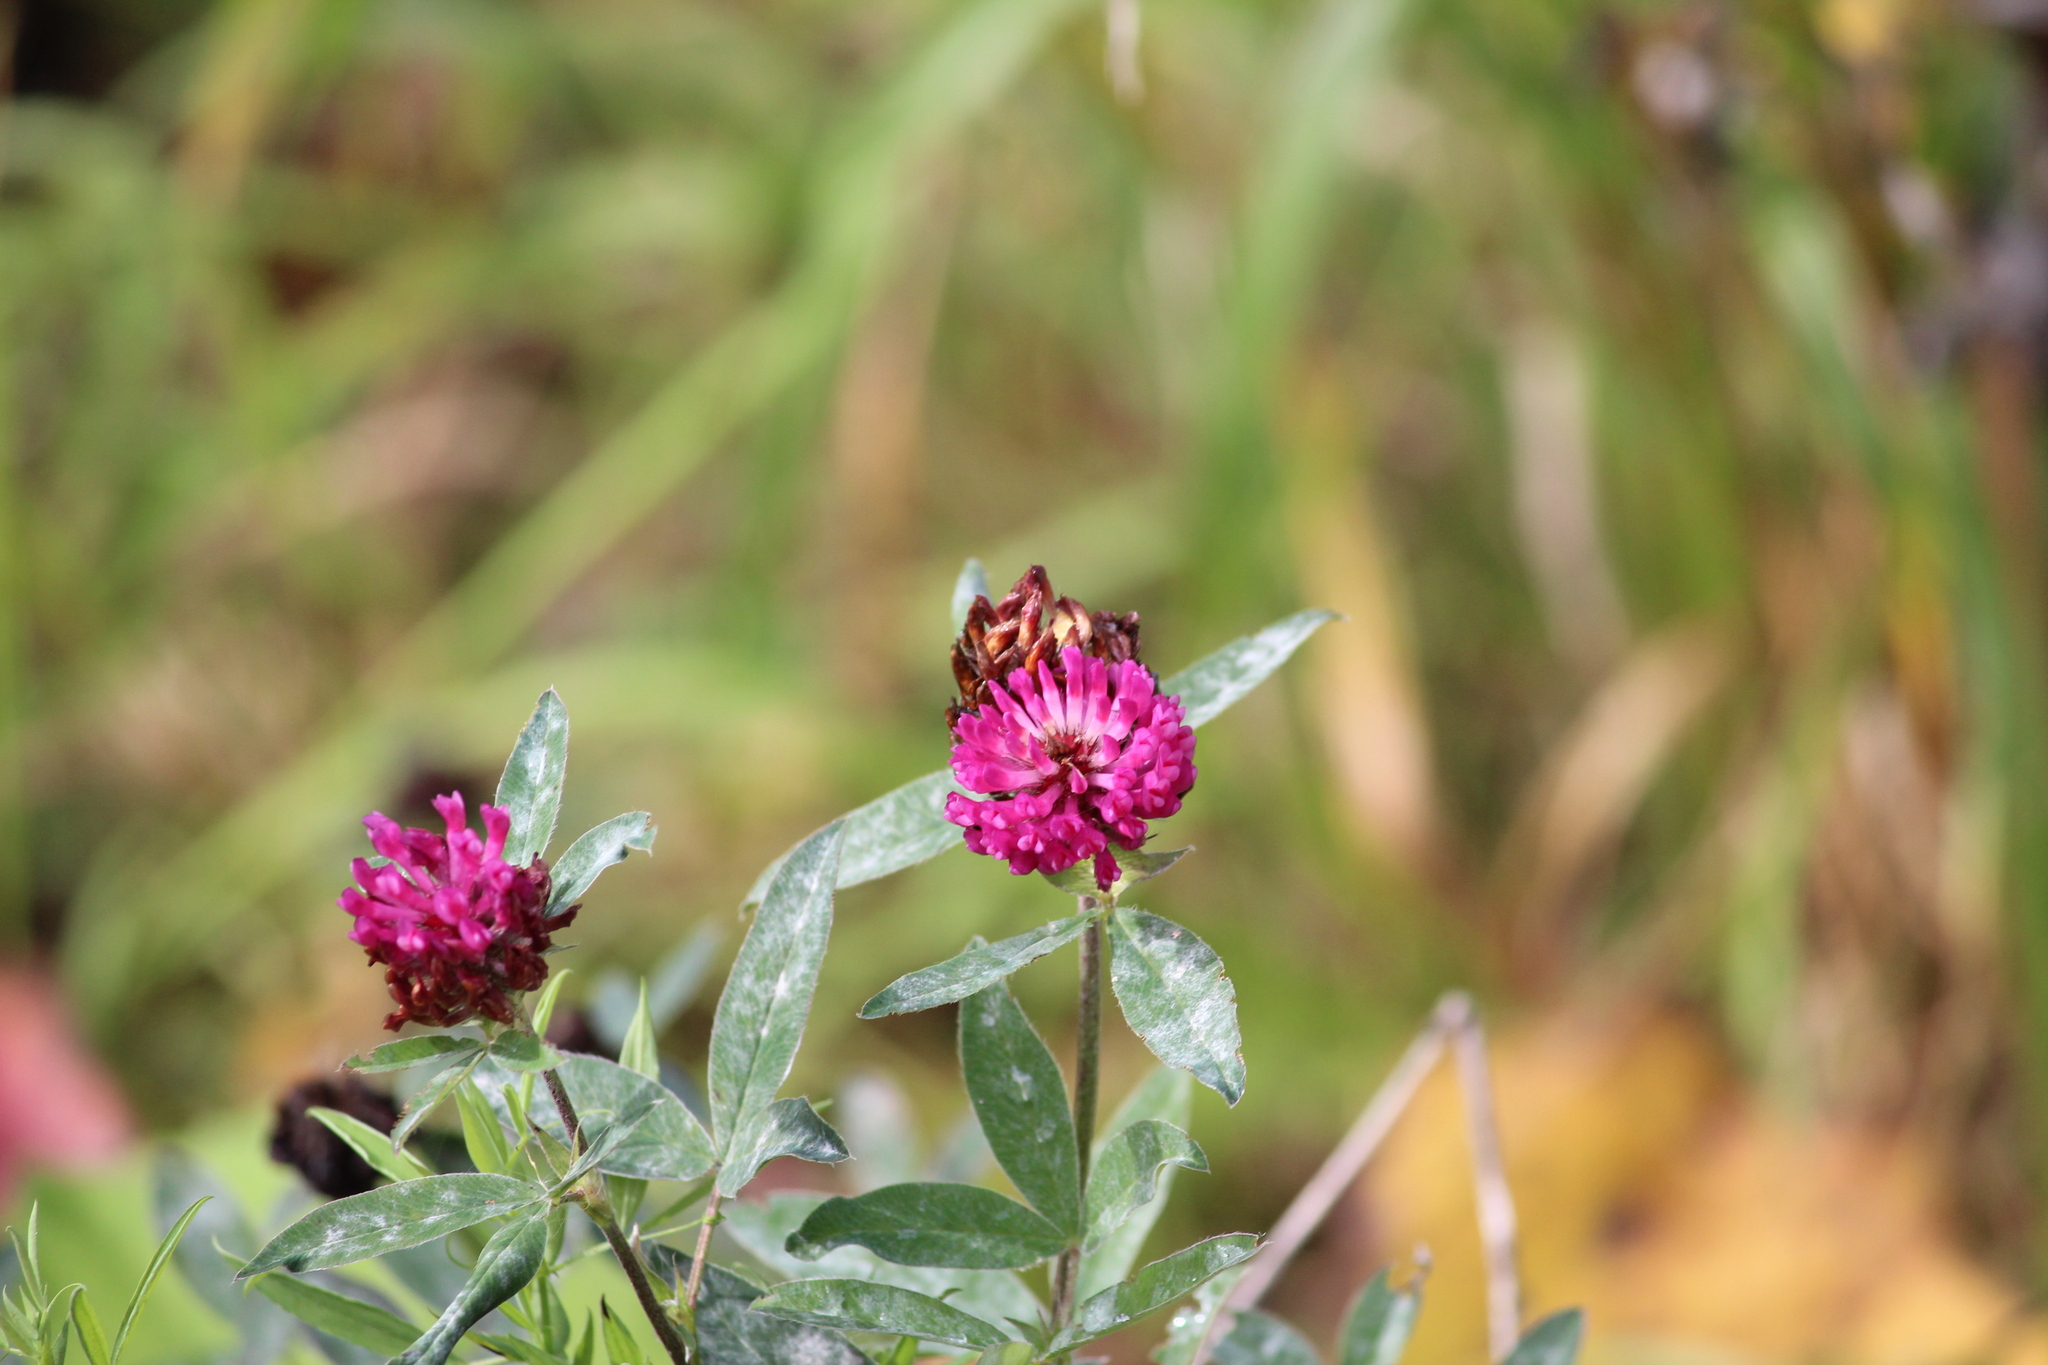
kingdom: Plantae
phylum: Tracheophyta
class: Magnoliopsida
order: Fabales
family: Fabaceae
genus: Trifolium
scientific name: Trifolium medium
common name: Zigzag clover
